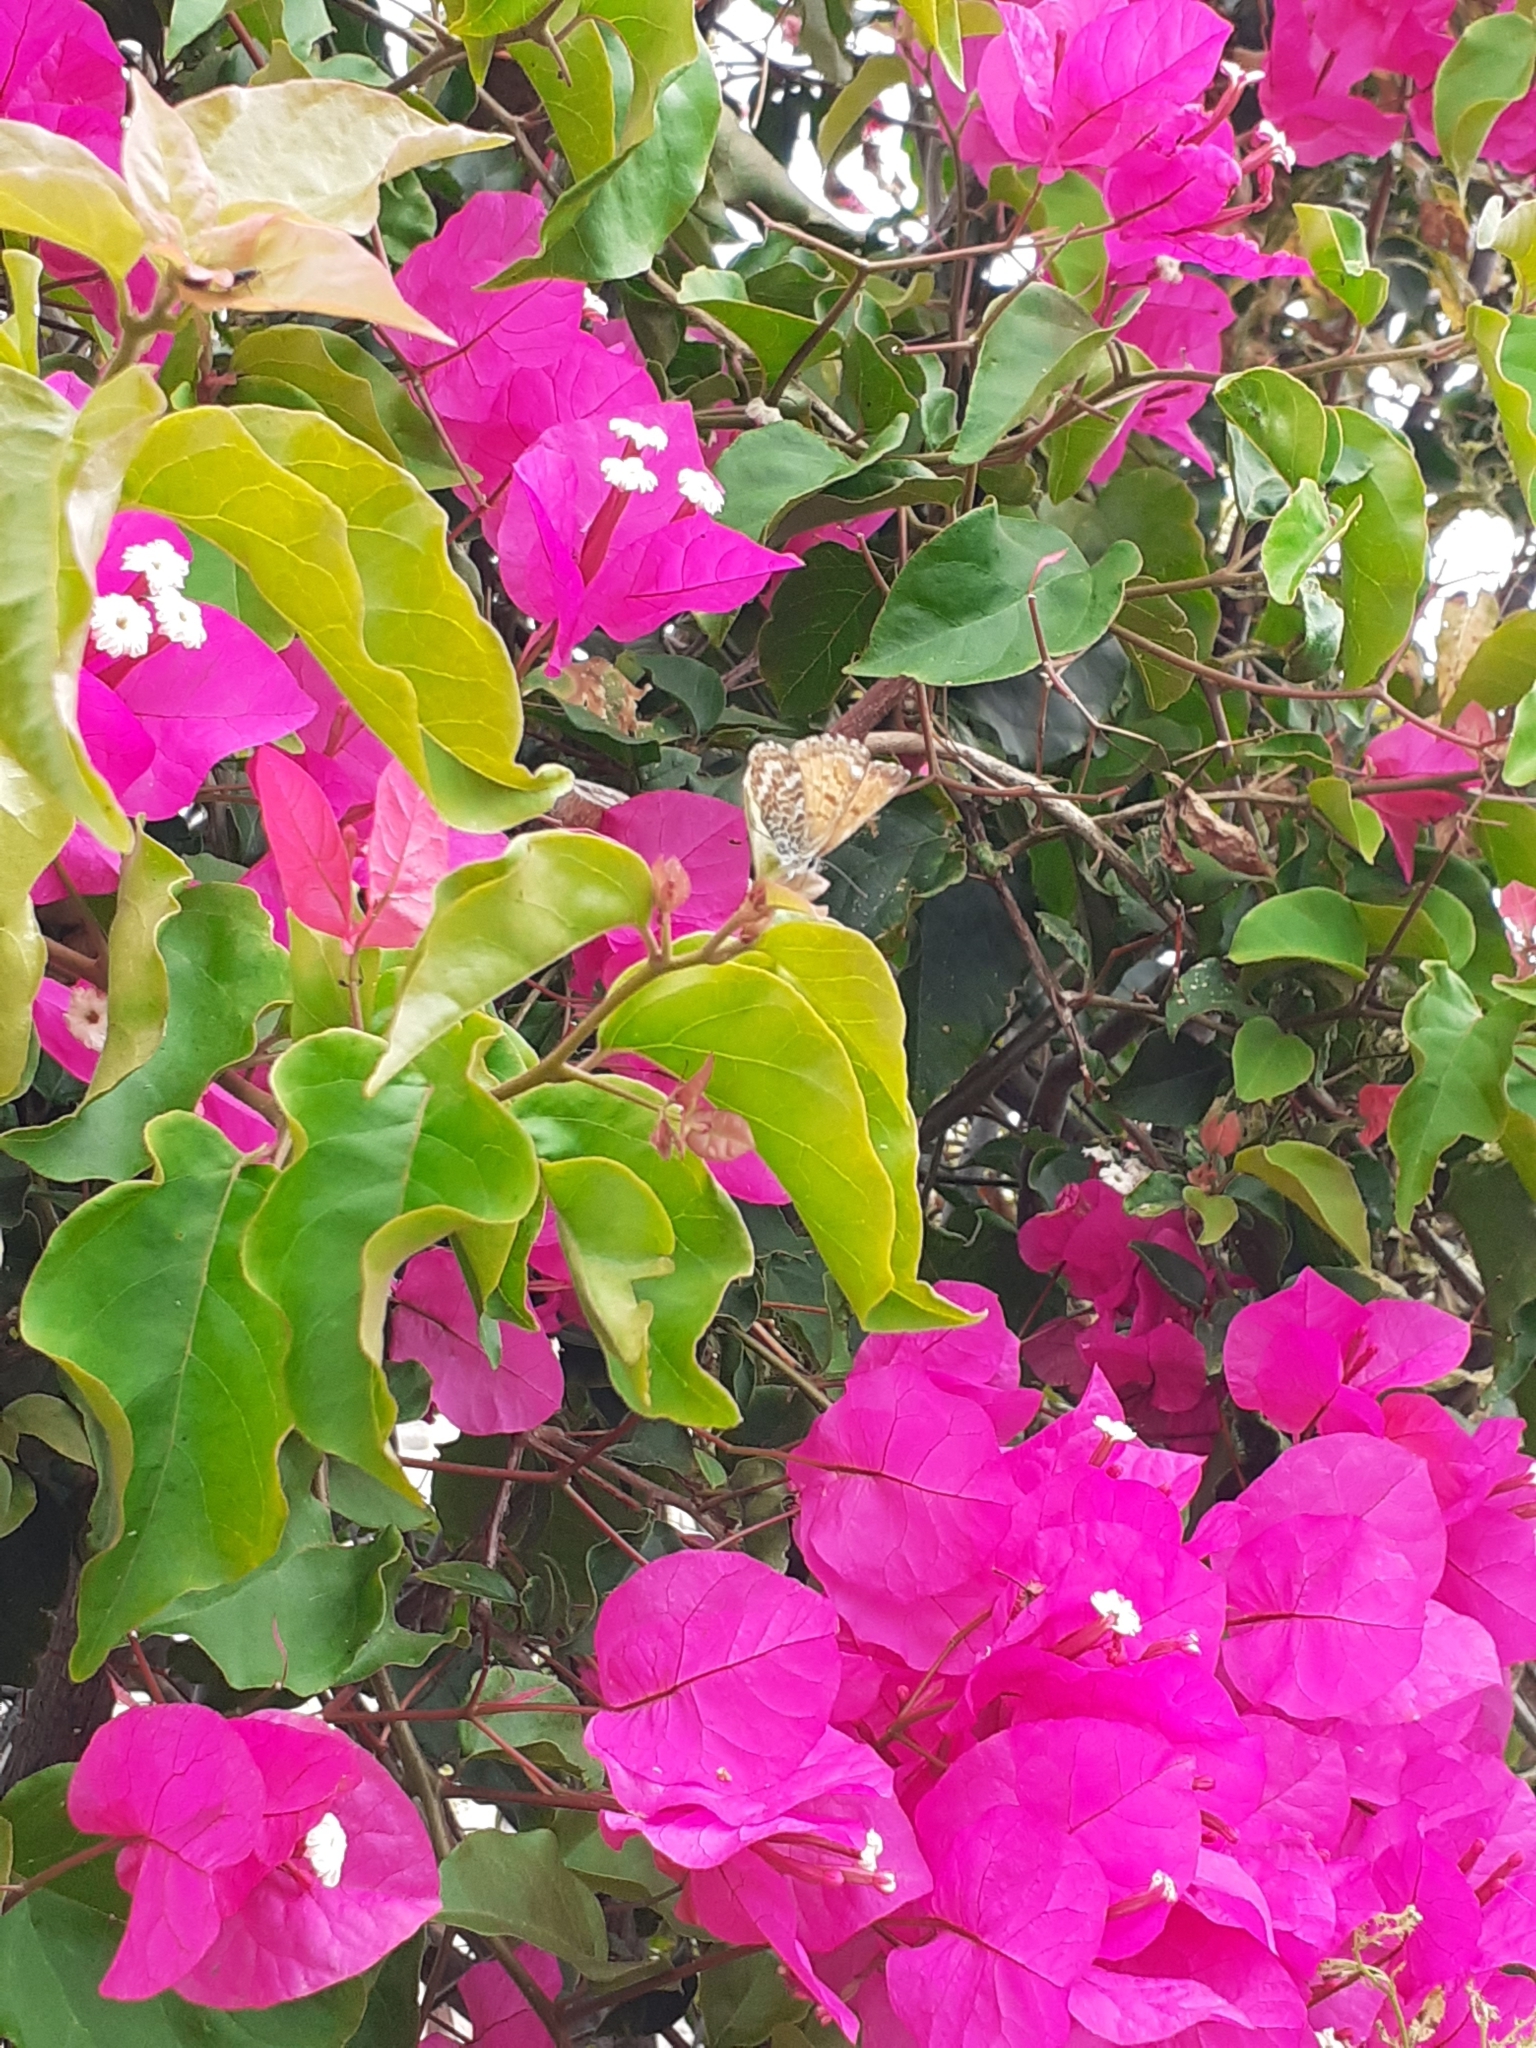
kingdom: Animalia
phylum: Arthropoda
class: Insecta
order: Lepidoptera
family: Lycaenidae
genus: Cyclyrius
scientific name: Cyclyrius webbianus
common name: Canary blue
